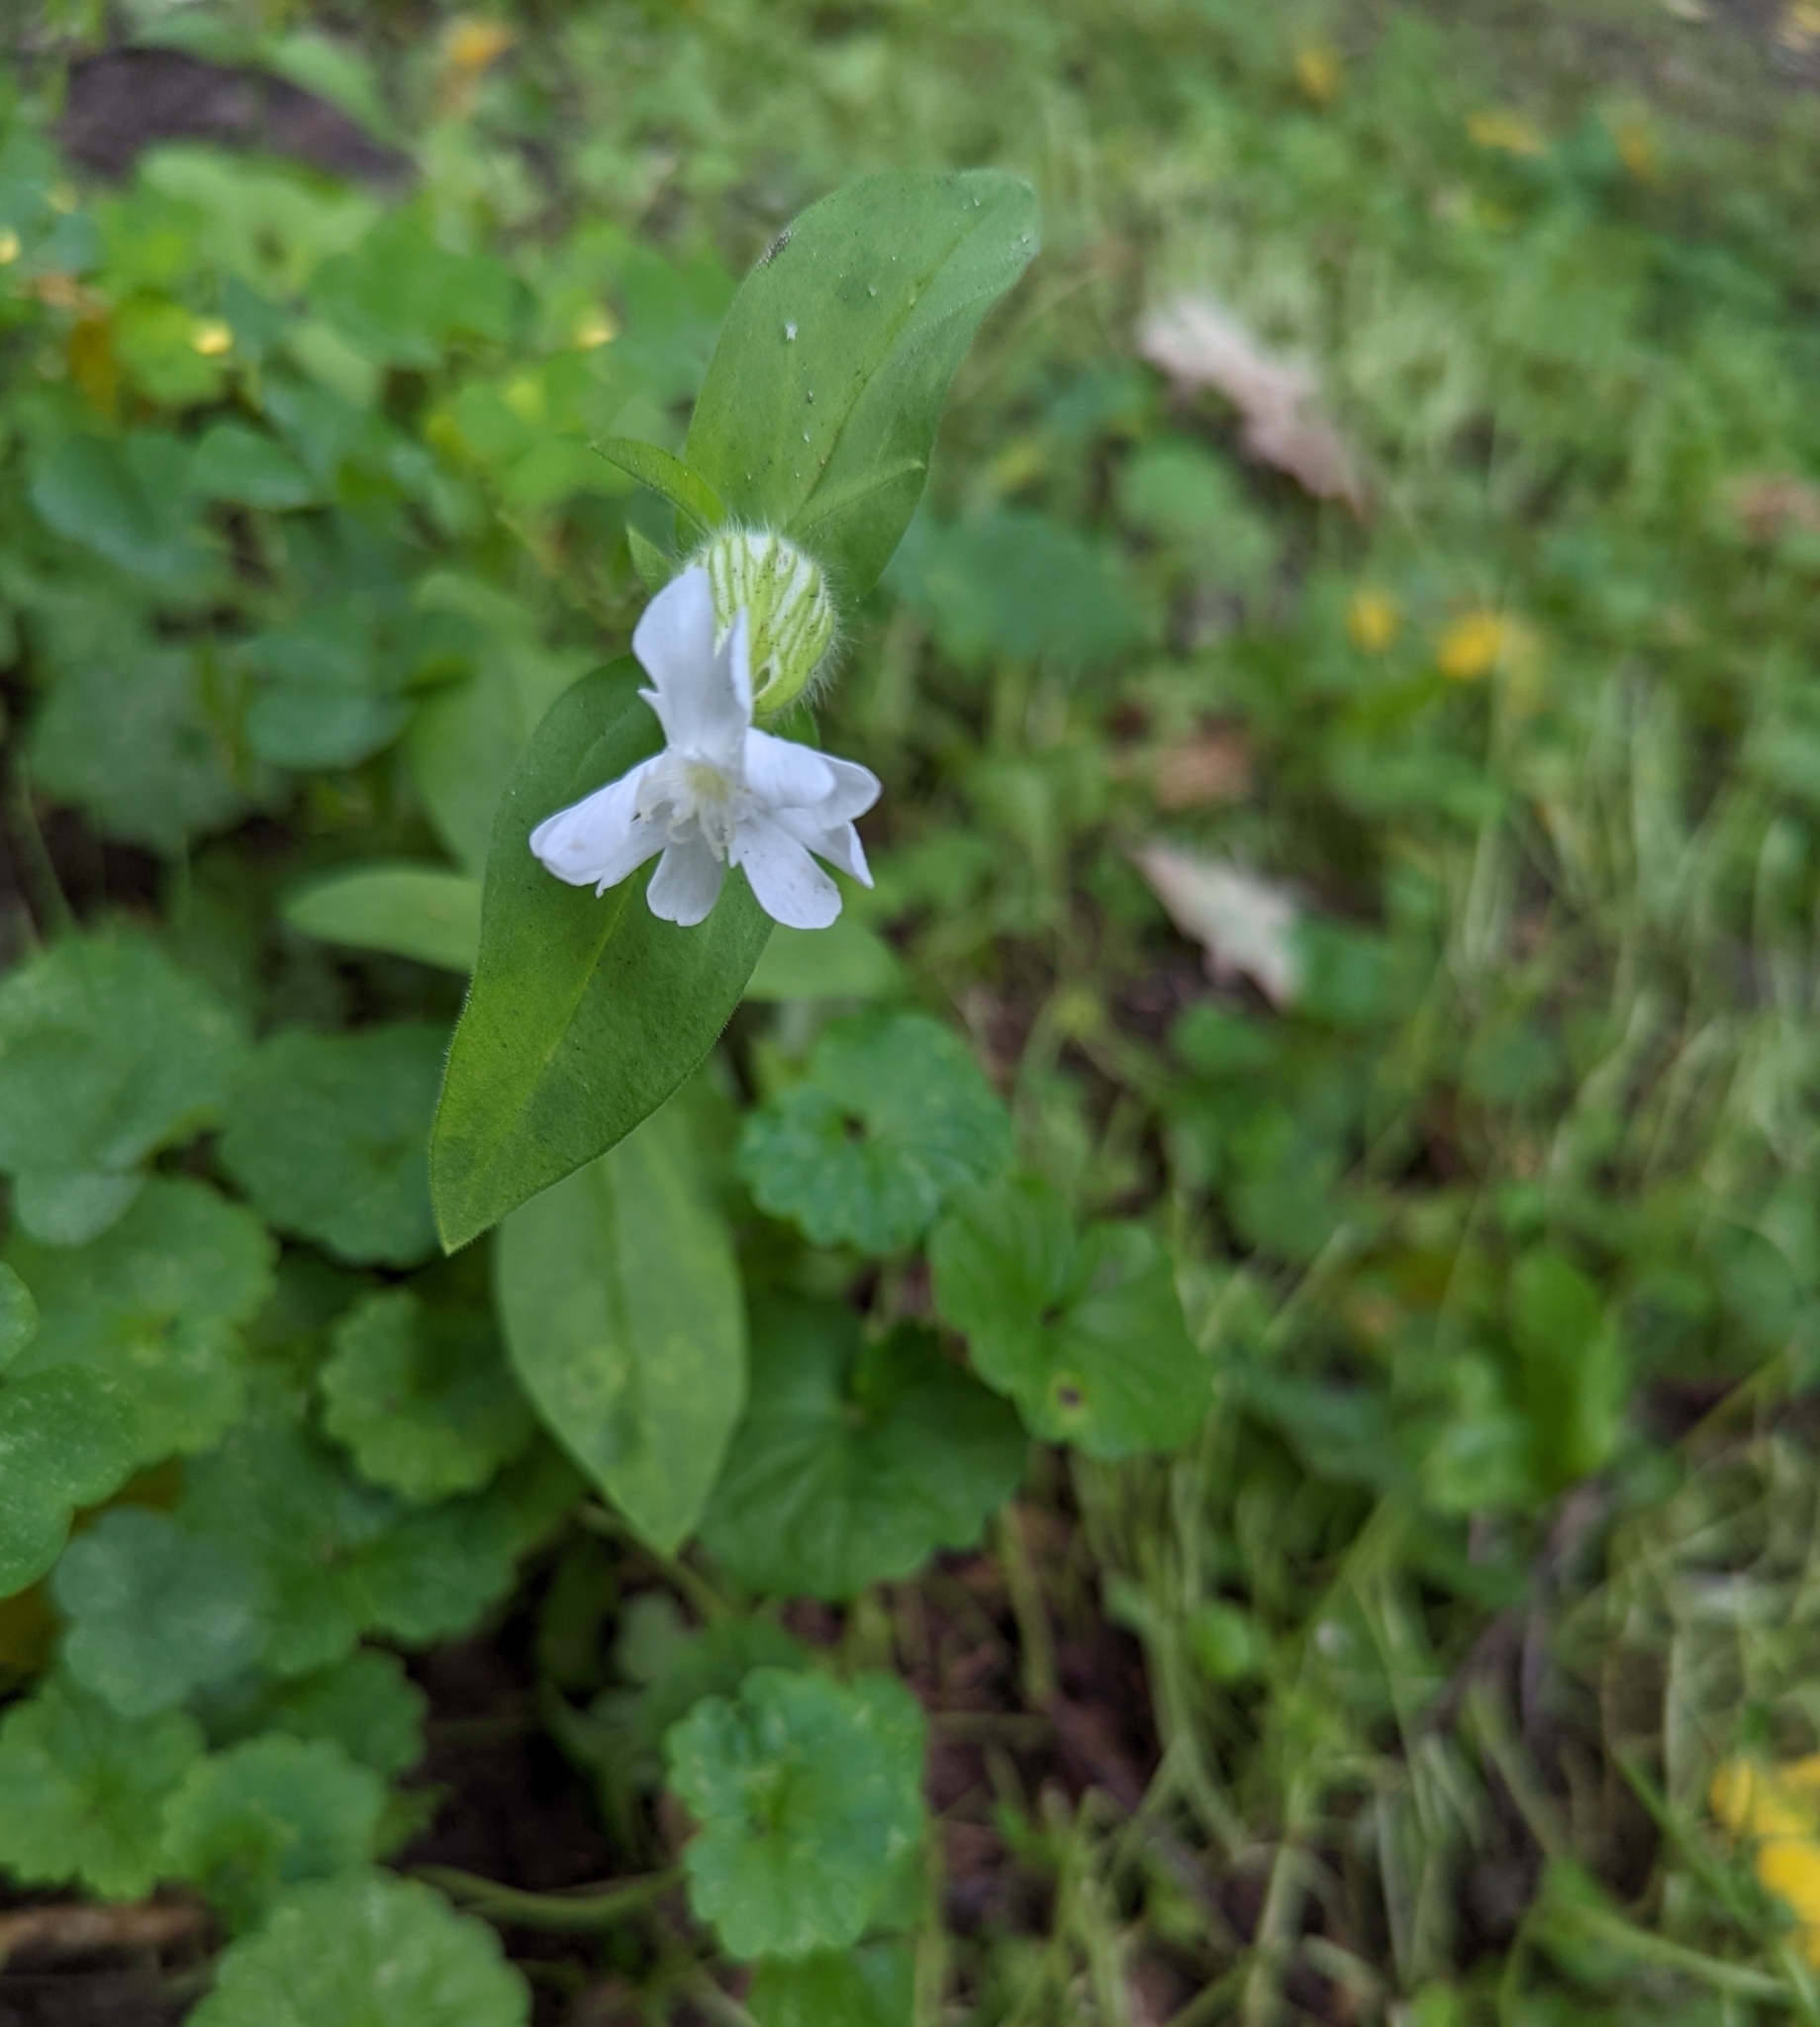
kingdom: Plantae
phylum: Tracheophyta
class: Magnoliopsida
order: Caryophyllales
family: Caryophyllaceae
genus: Silene
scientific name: Silene latifolia
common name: White campion
